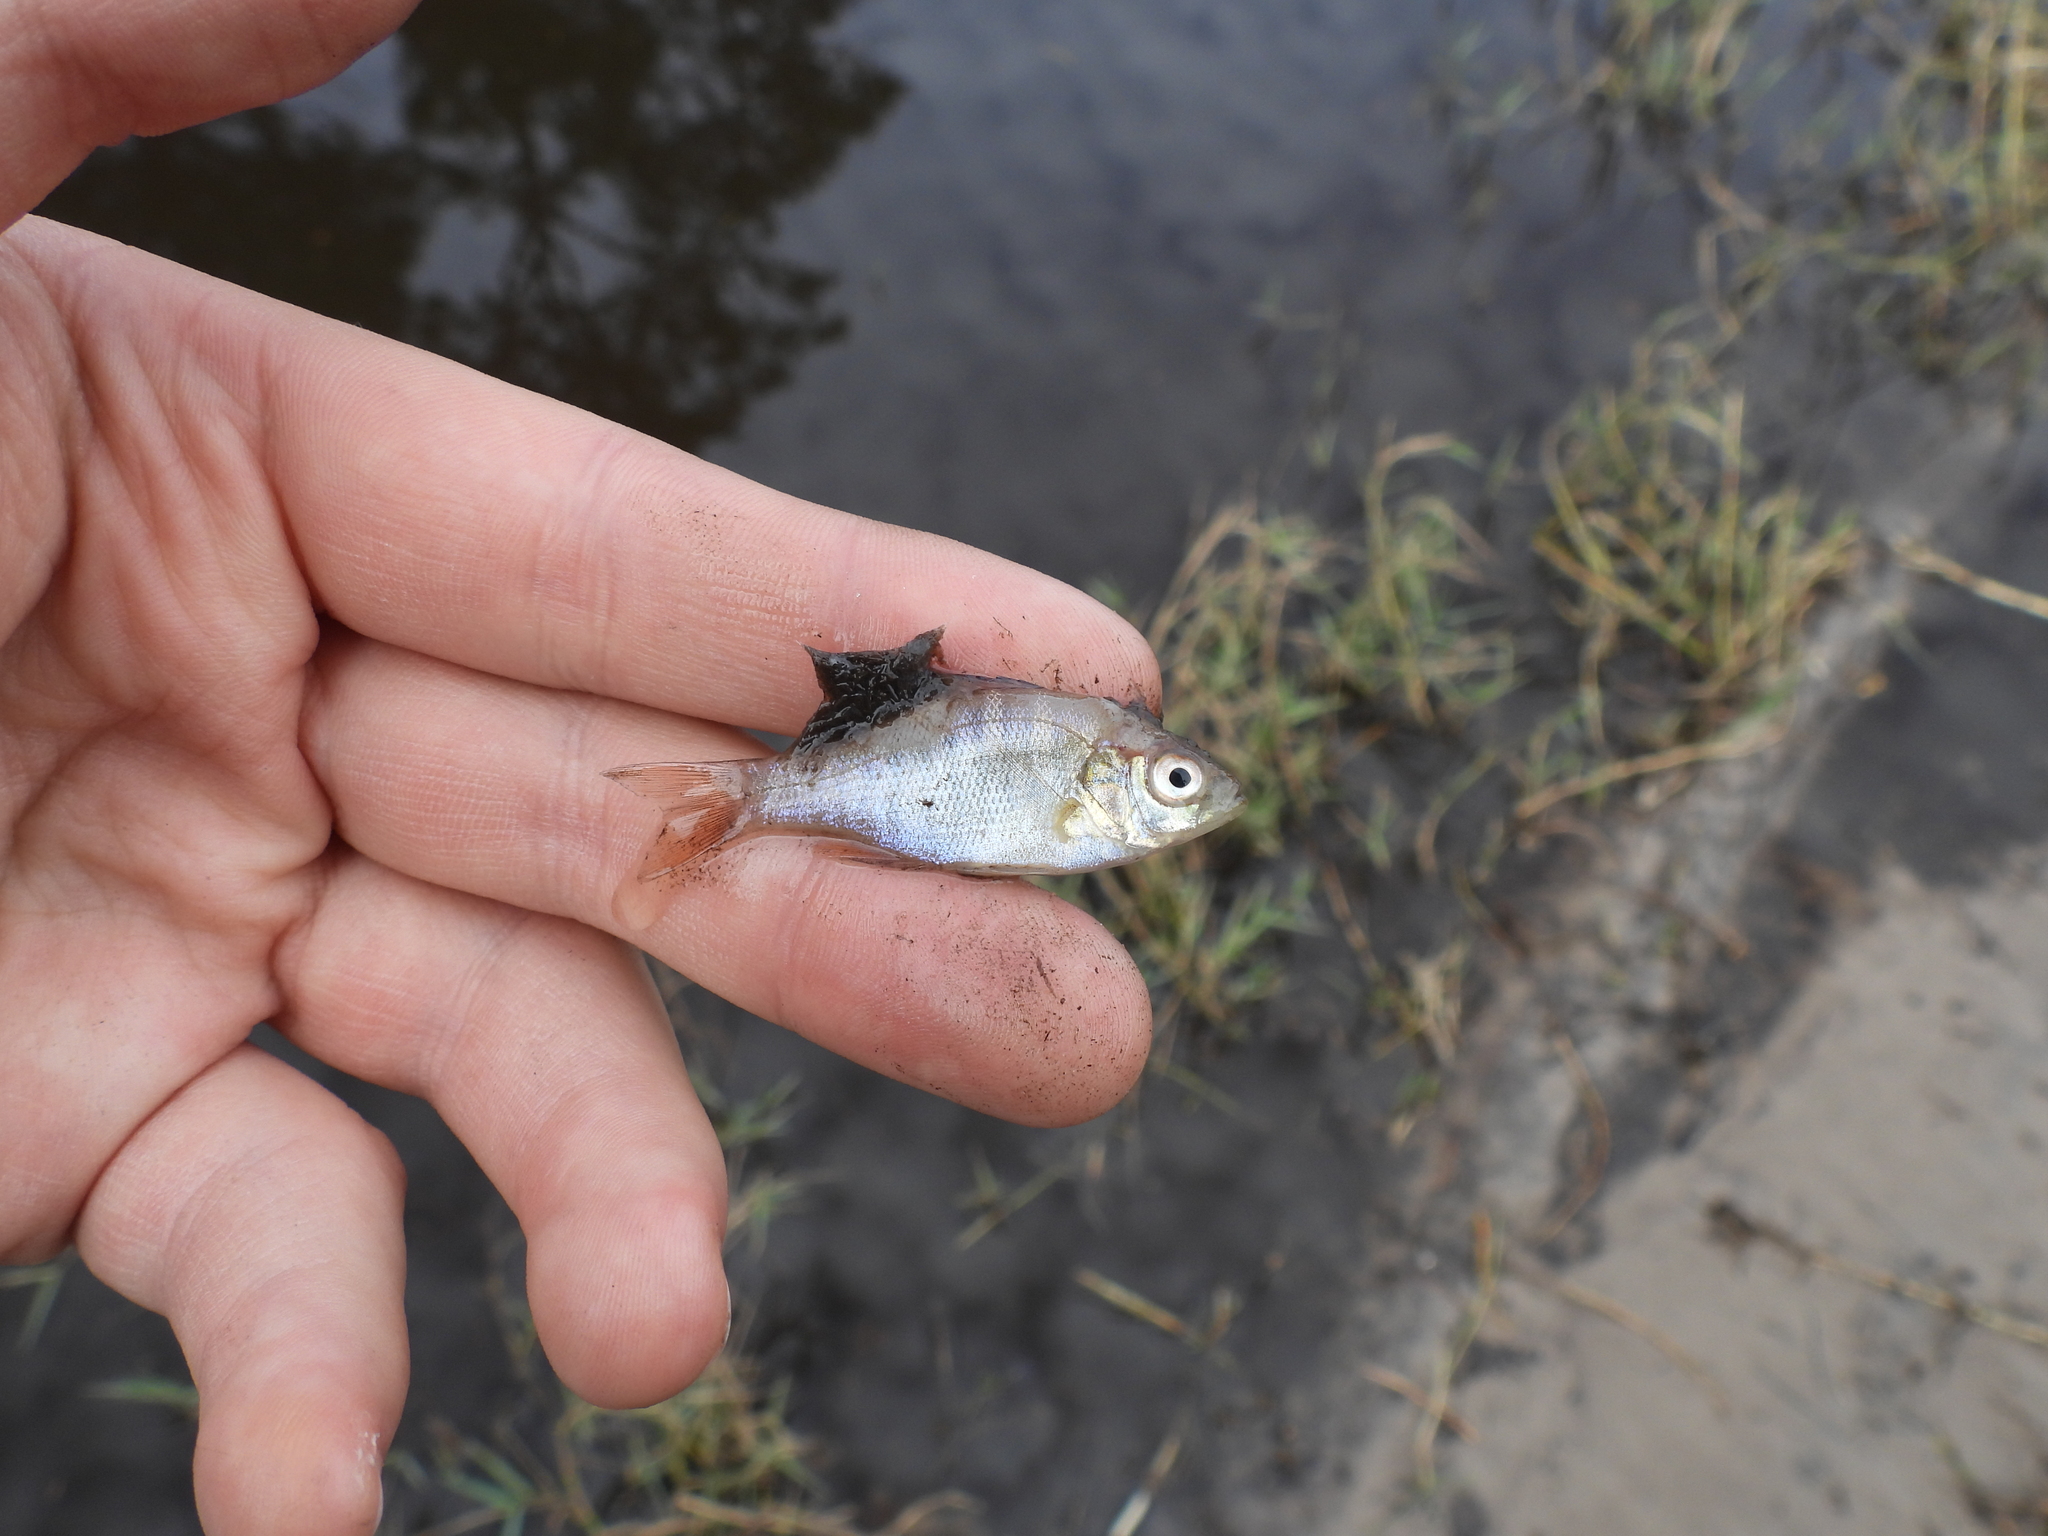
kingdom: Animalia
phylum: Chordata
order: Perciformes
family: Centrarchidae
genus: Lepomis
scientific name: Lepomis macrochirus
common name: Bluegill
